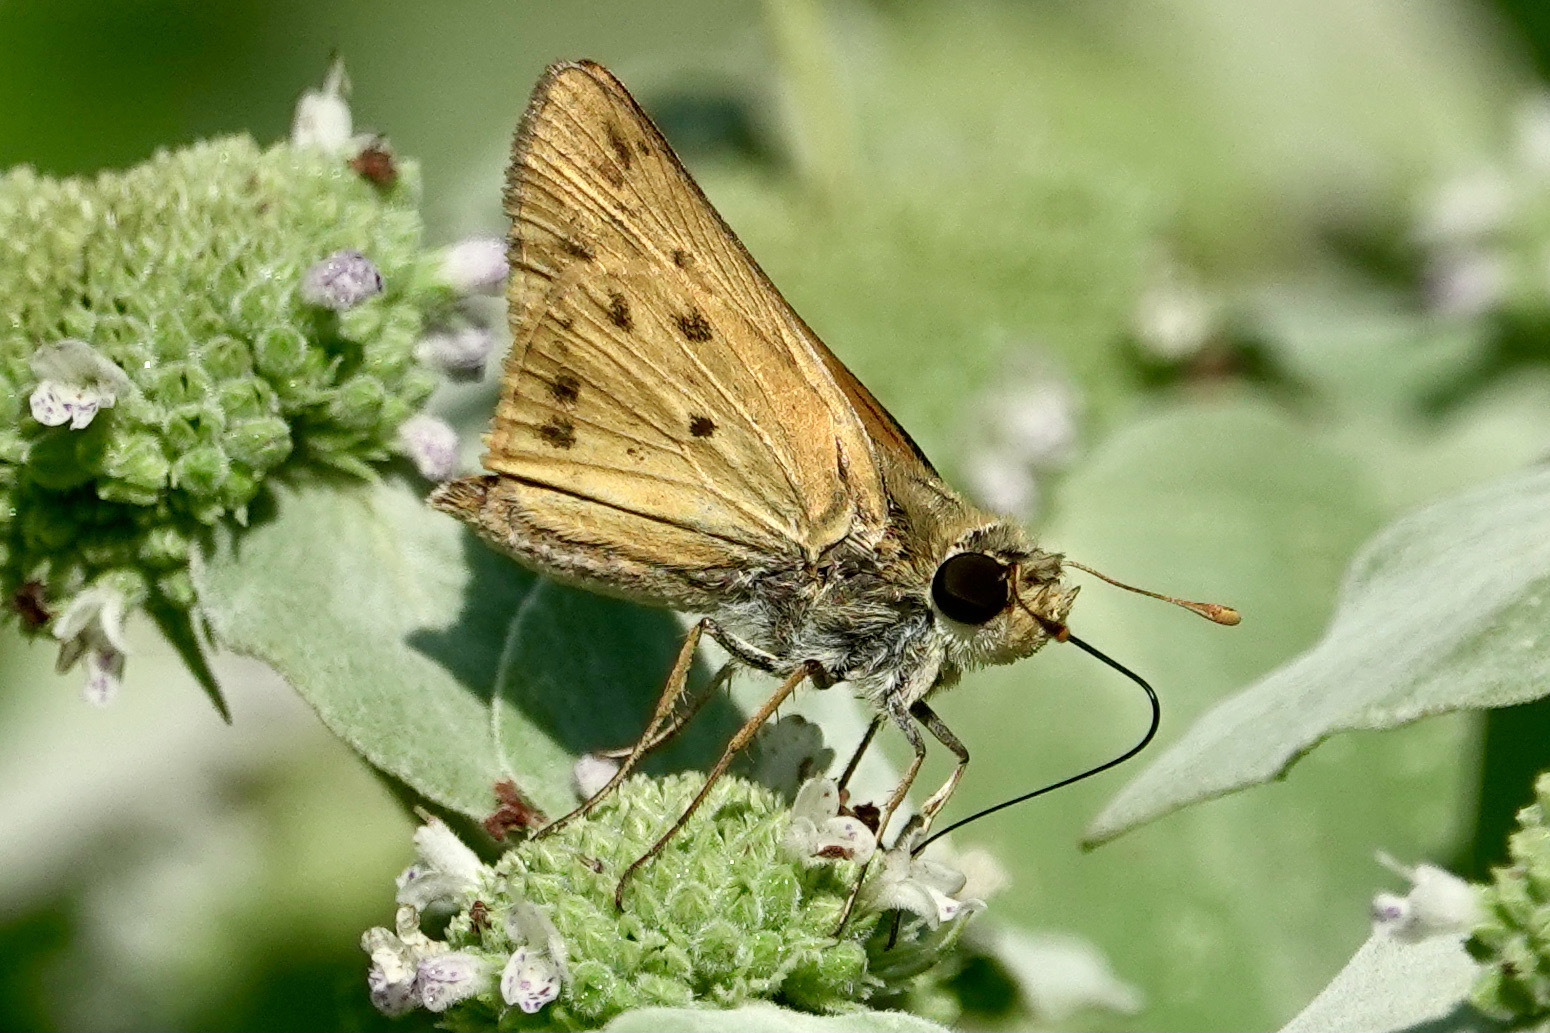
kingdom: Animalia
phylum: Arthropoda
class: Insecta
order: Lepidoptera
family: Hesperiidae
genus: Hylephila
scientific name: Hylephila phyleus
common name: Fiery skipper
